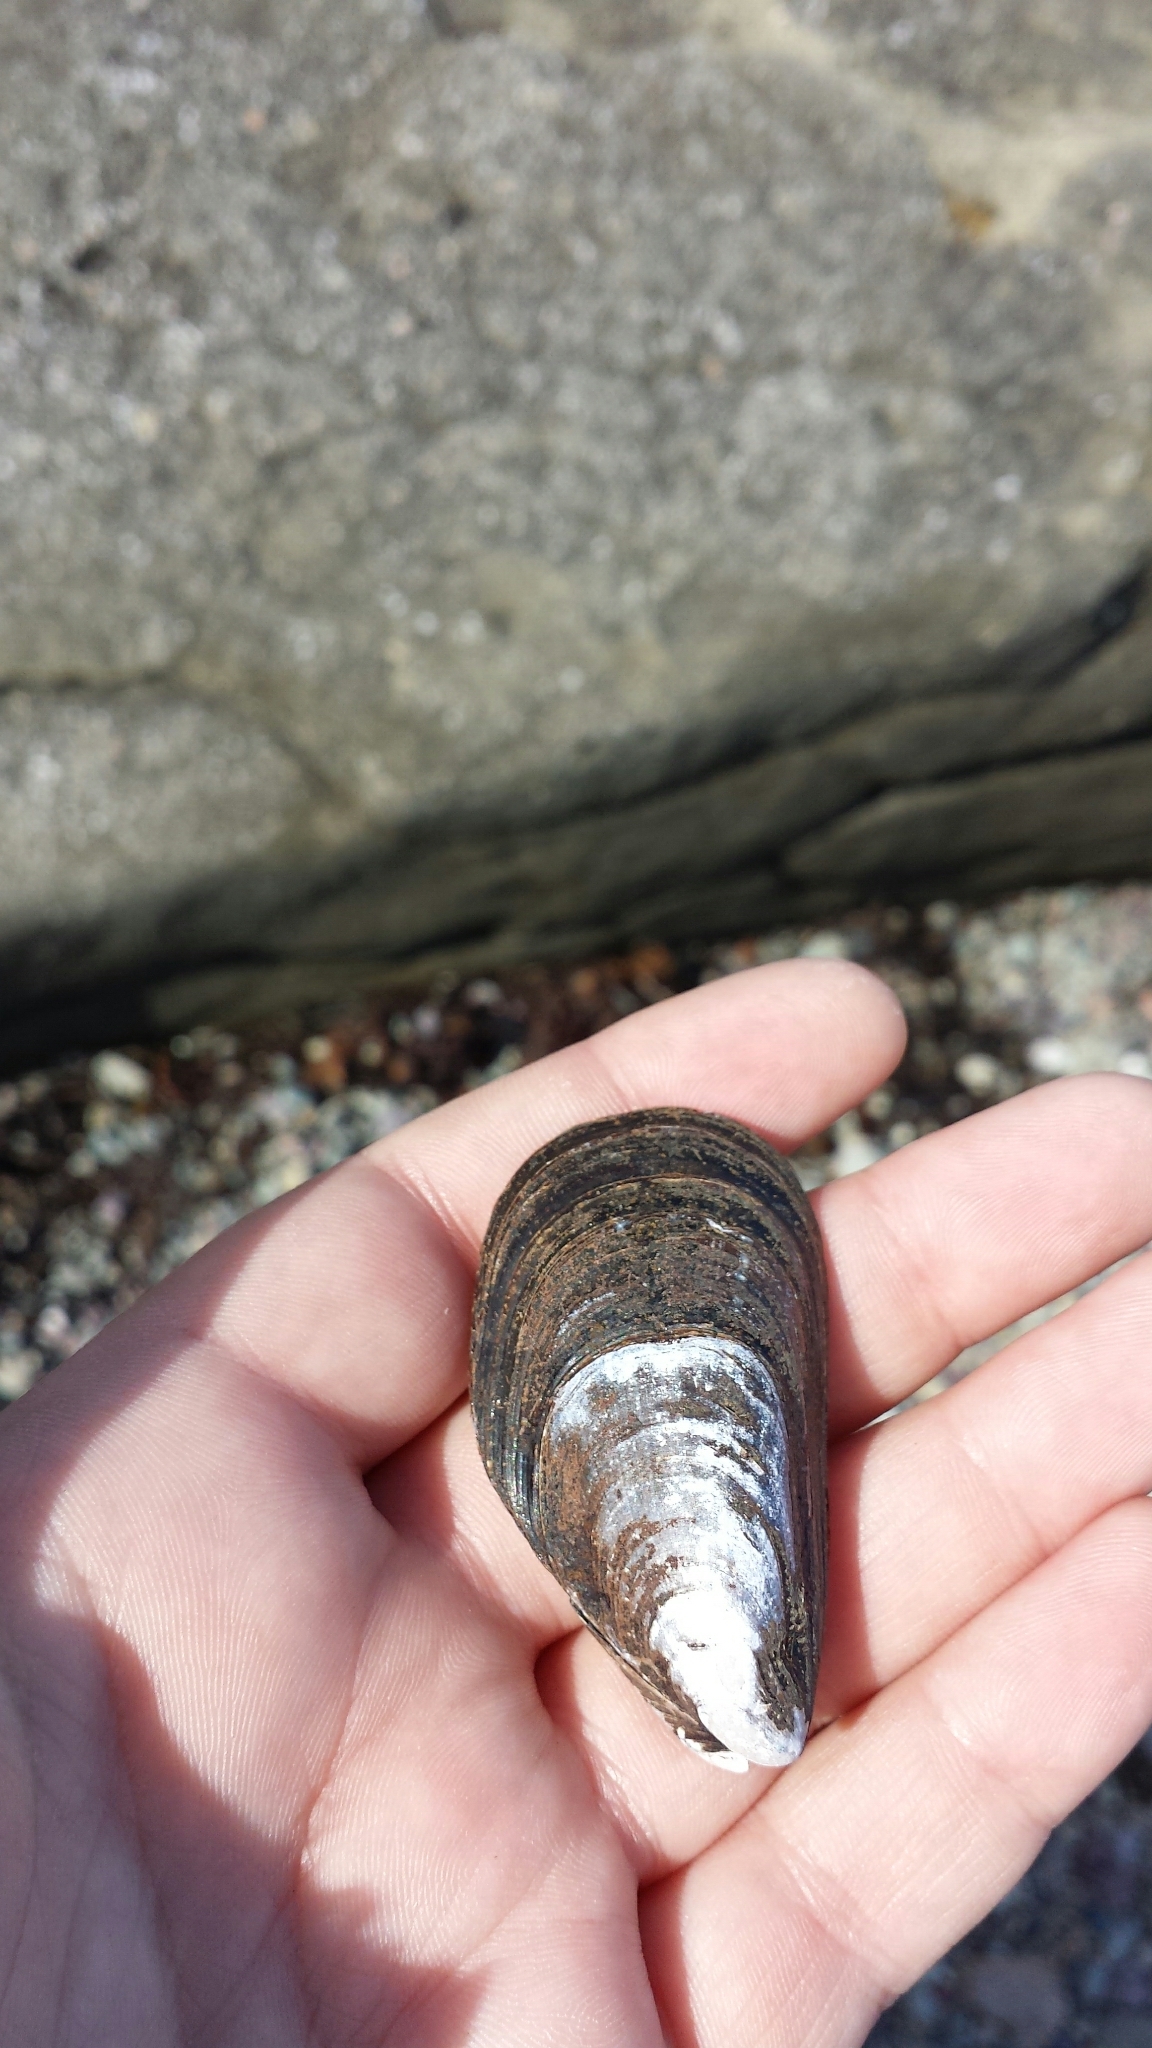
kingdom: Animalia
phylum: Mollusca
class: Bivalvia
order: Mytilida
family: Mytilidae
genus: Mytilus
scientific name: Mytilus edulis
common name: Blue mussel
